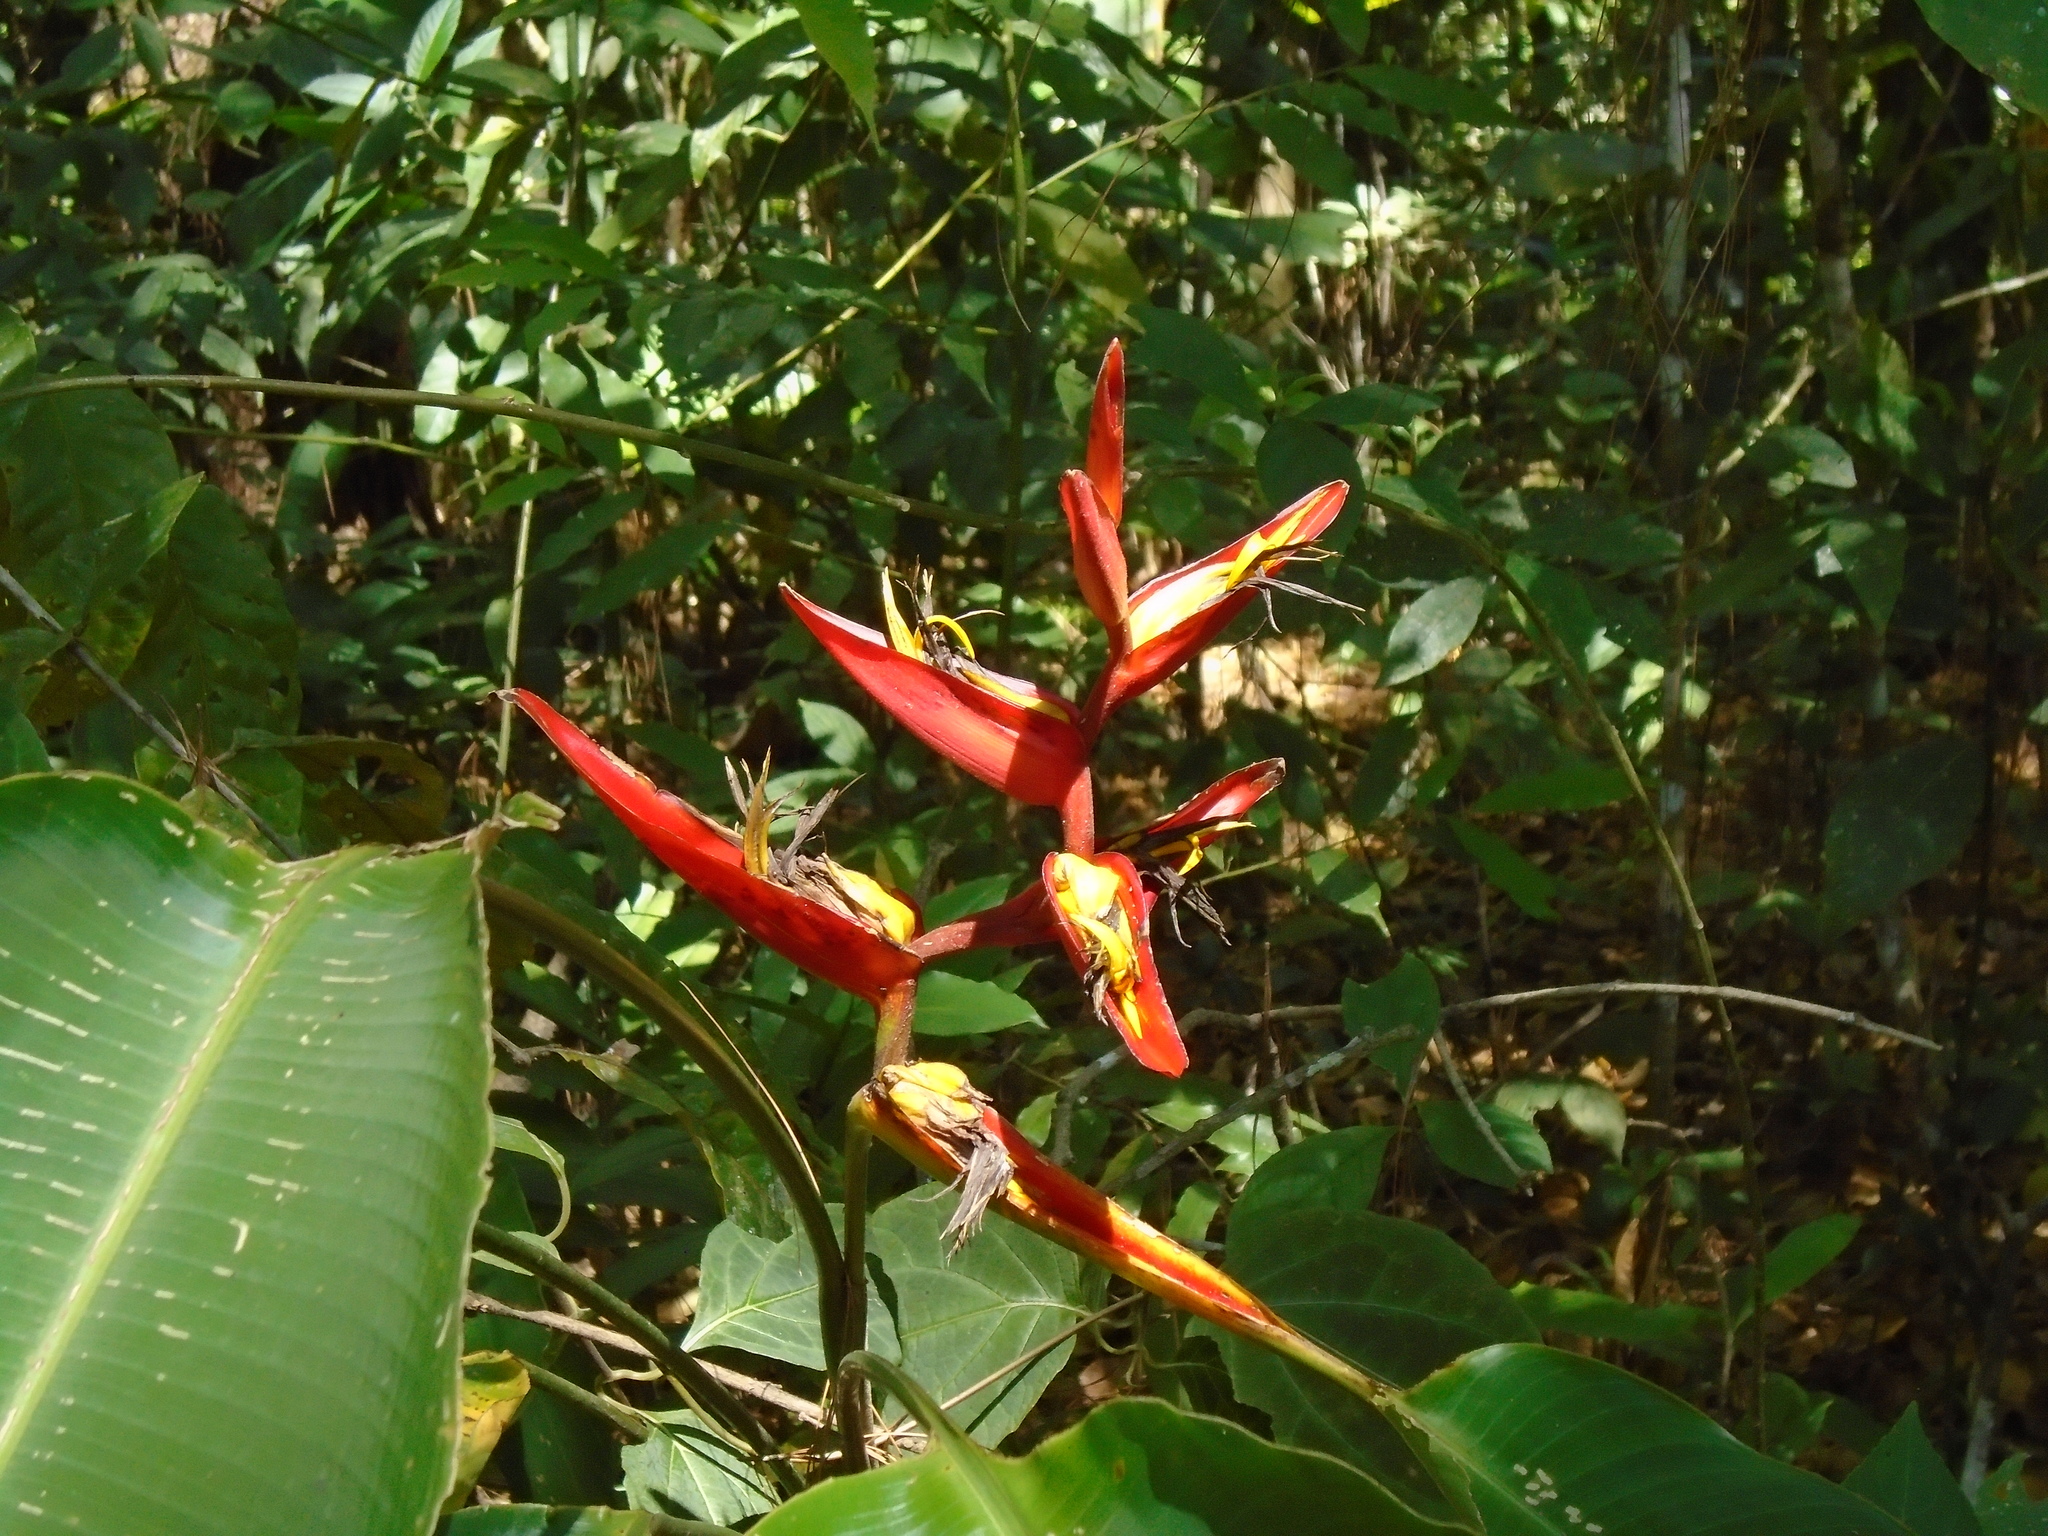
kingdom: Plantae
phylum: Tracheophyta
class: Liliopsida
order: Zingiberales
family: Heliconiaceae
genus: Heliconia
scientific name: Heliconia tortuosa
